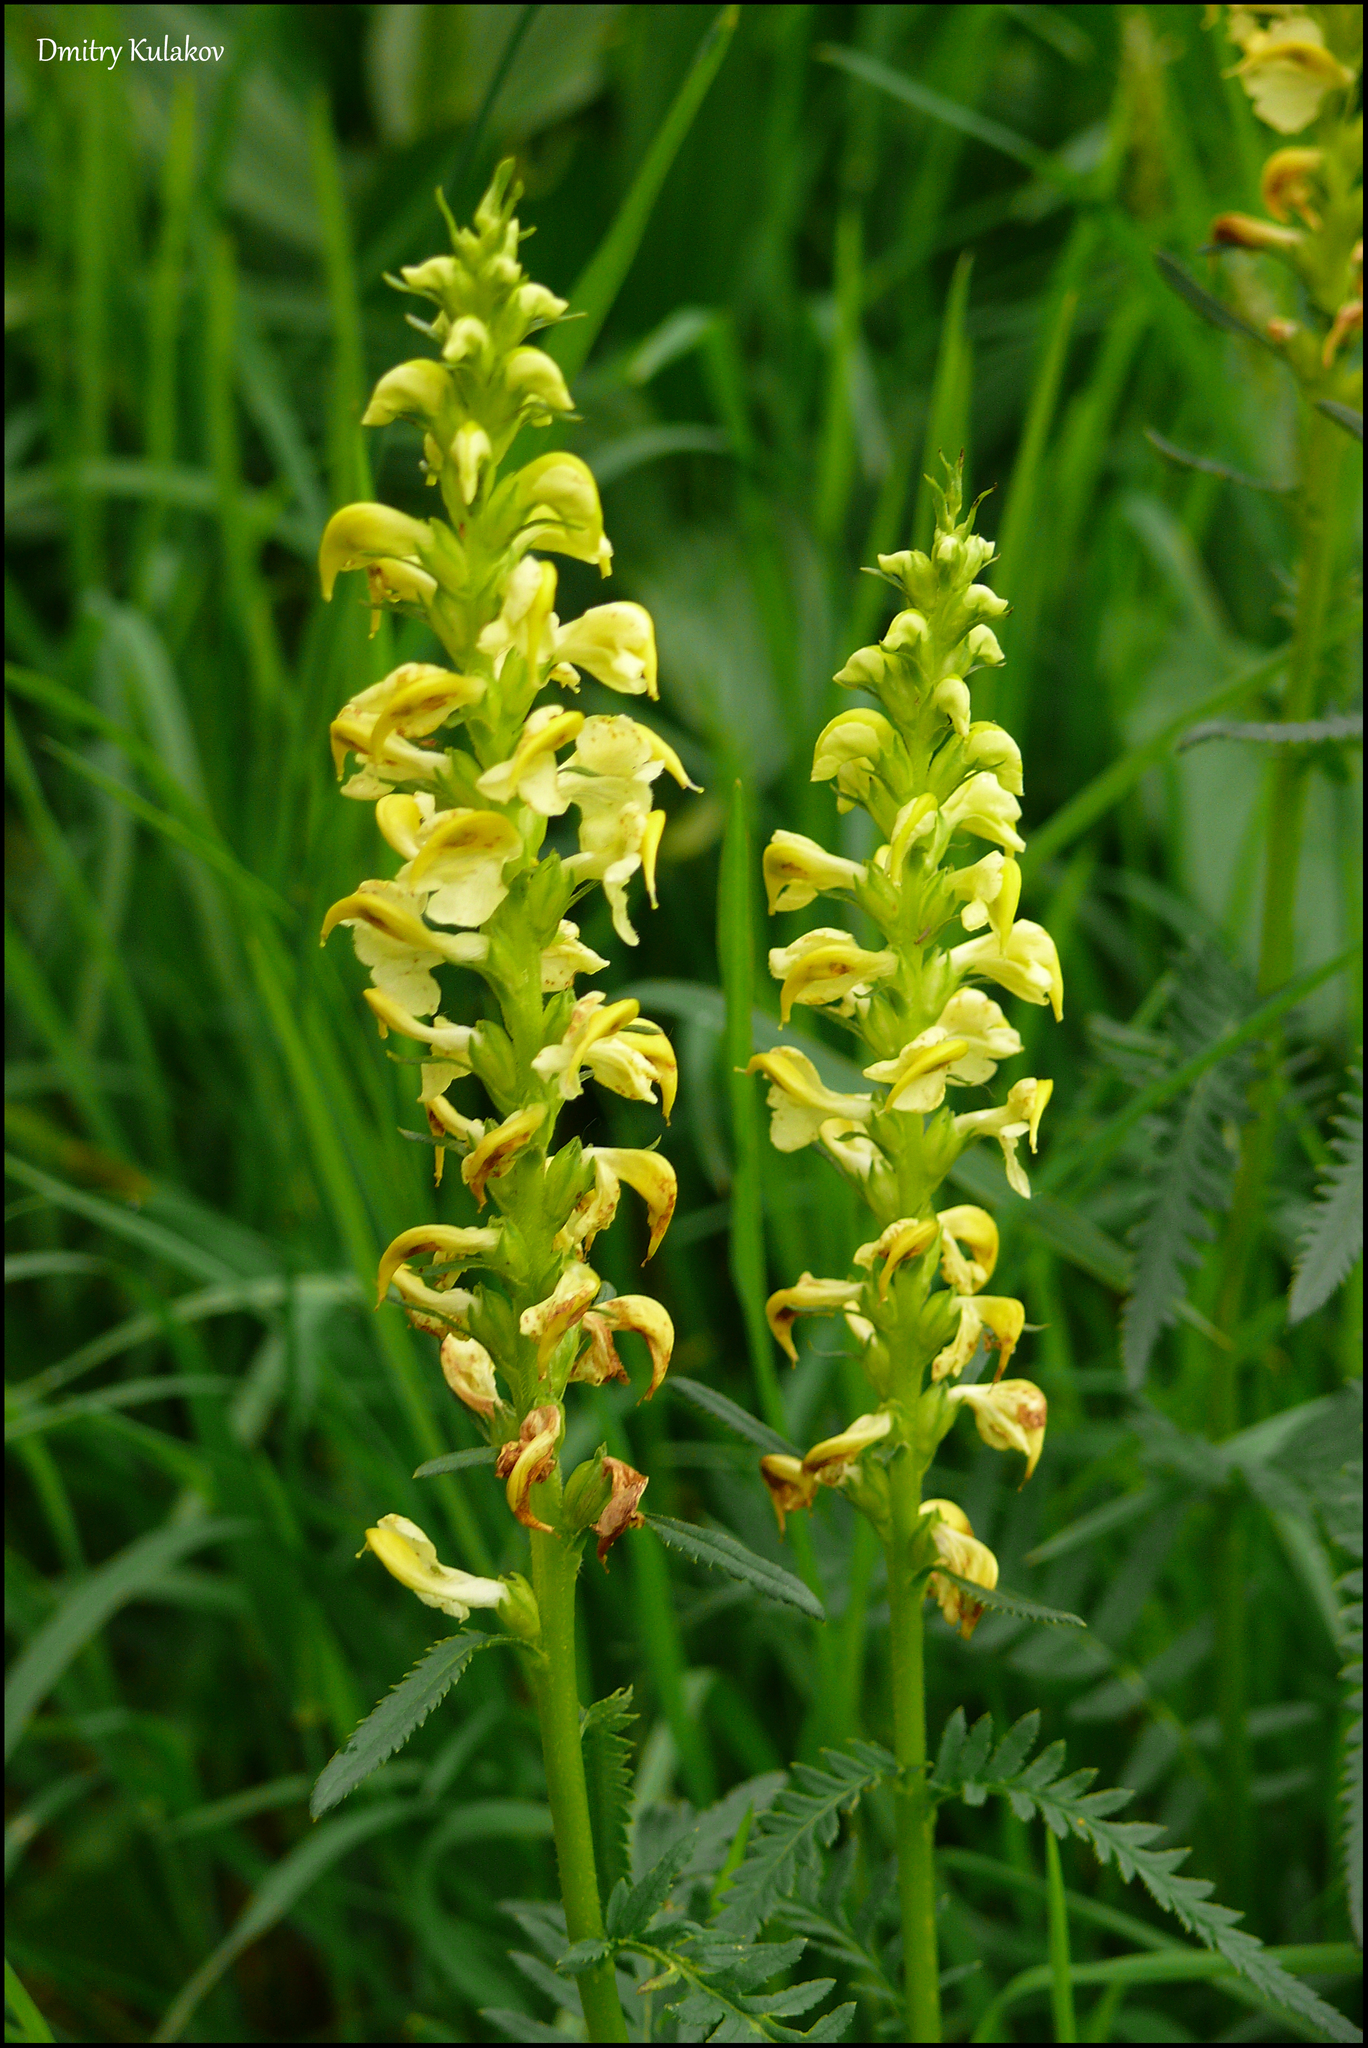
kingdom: Plantae
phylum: Tracheophyta
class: Magnoliopsida
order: Lamiales
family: Orobanchaceae
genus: Pedicularis
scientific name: Pedicularis incarnata
